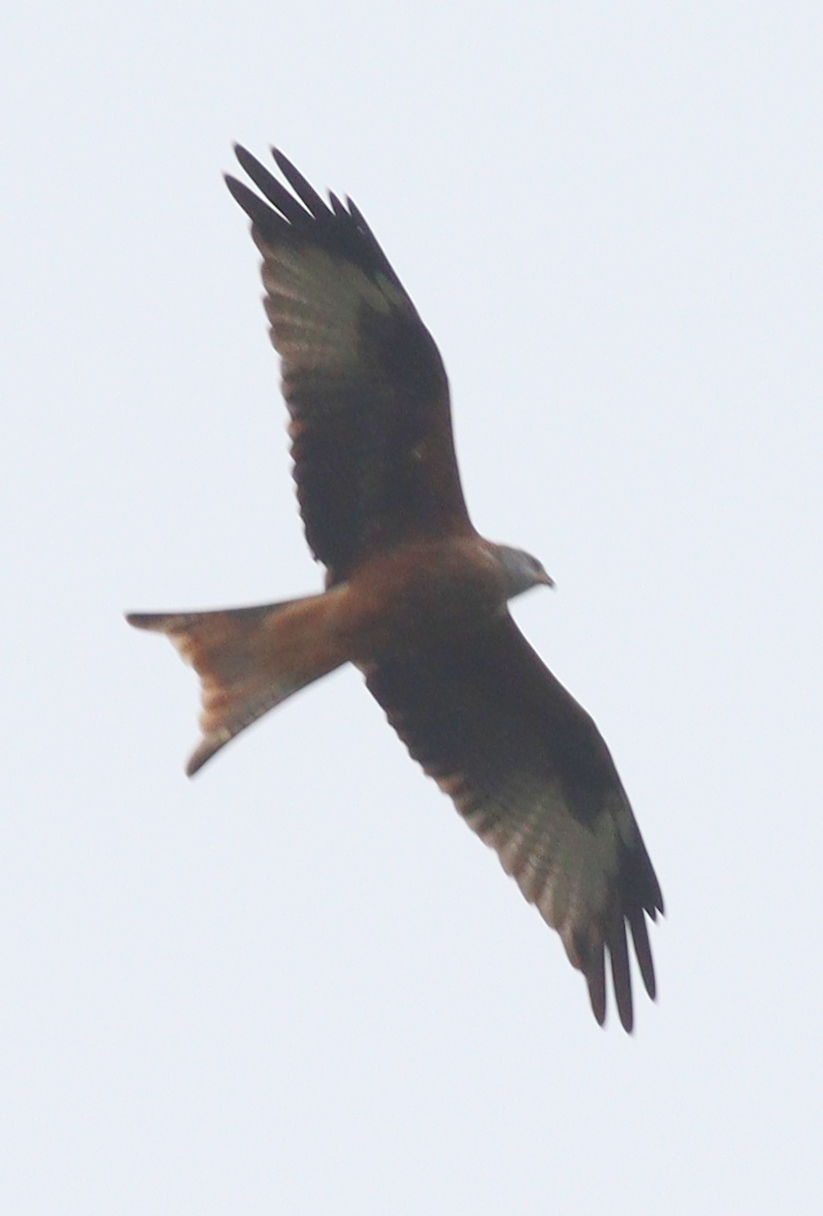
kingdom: Animalia
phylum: Chordata
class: Aves
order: Accipitriformes
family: Accipitridae
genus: Milvus
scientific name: Milvus milvus
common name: Red kite
